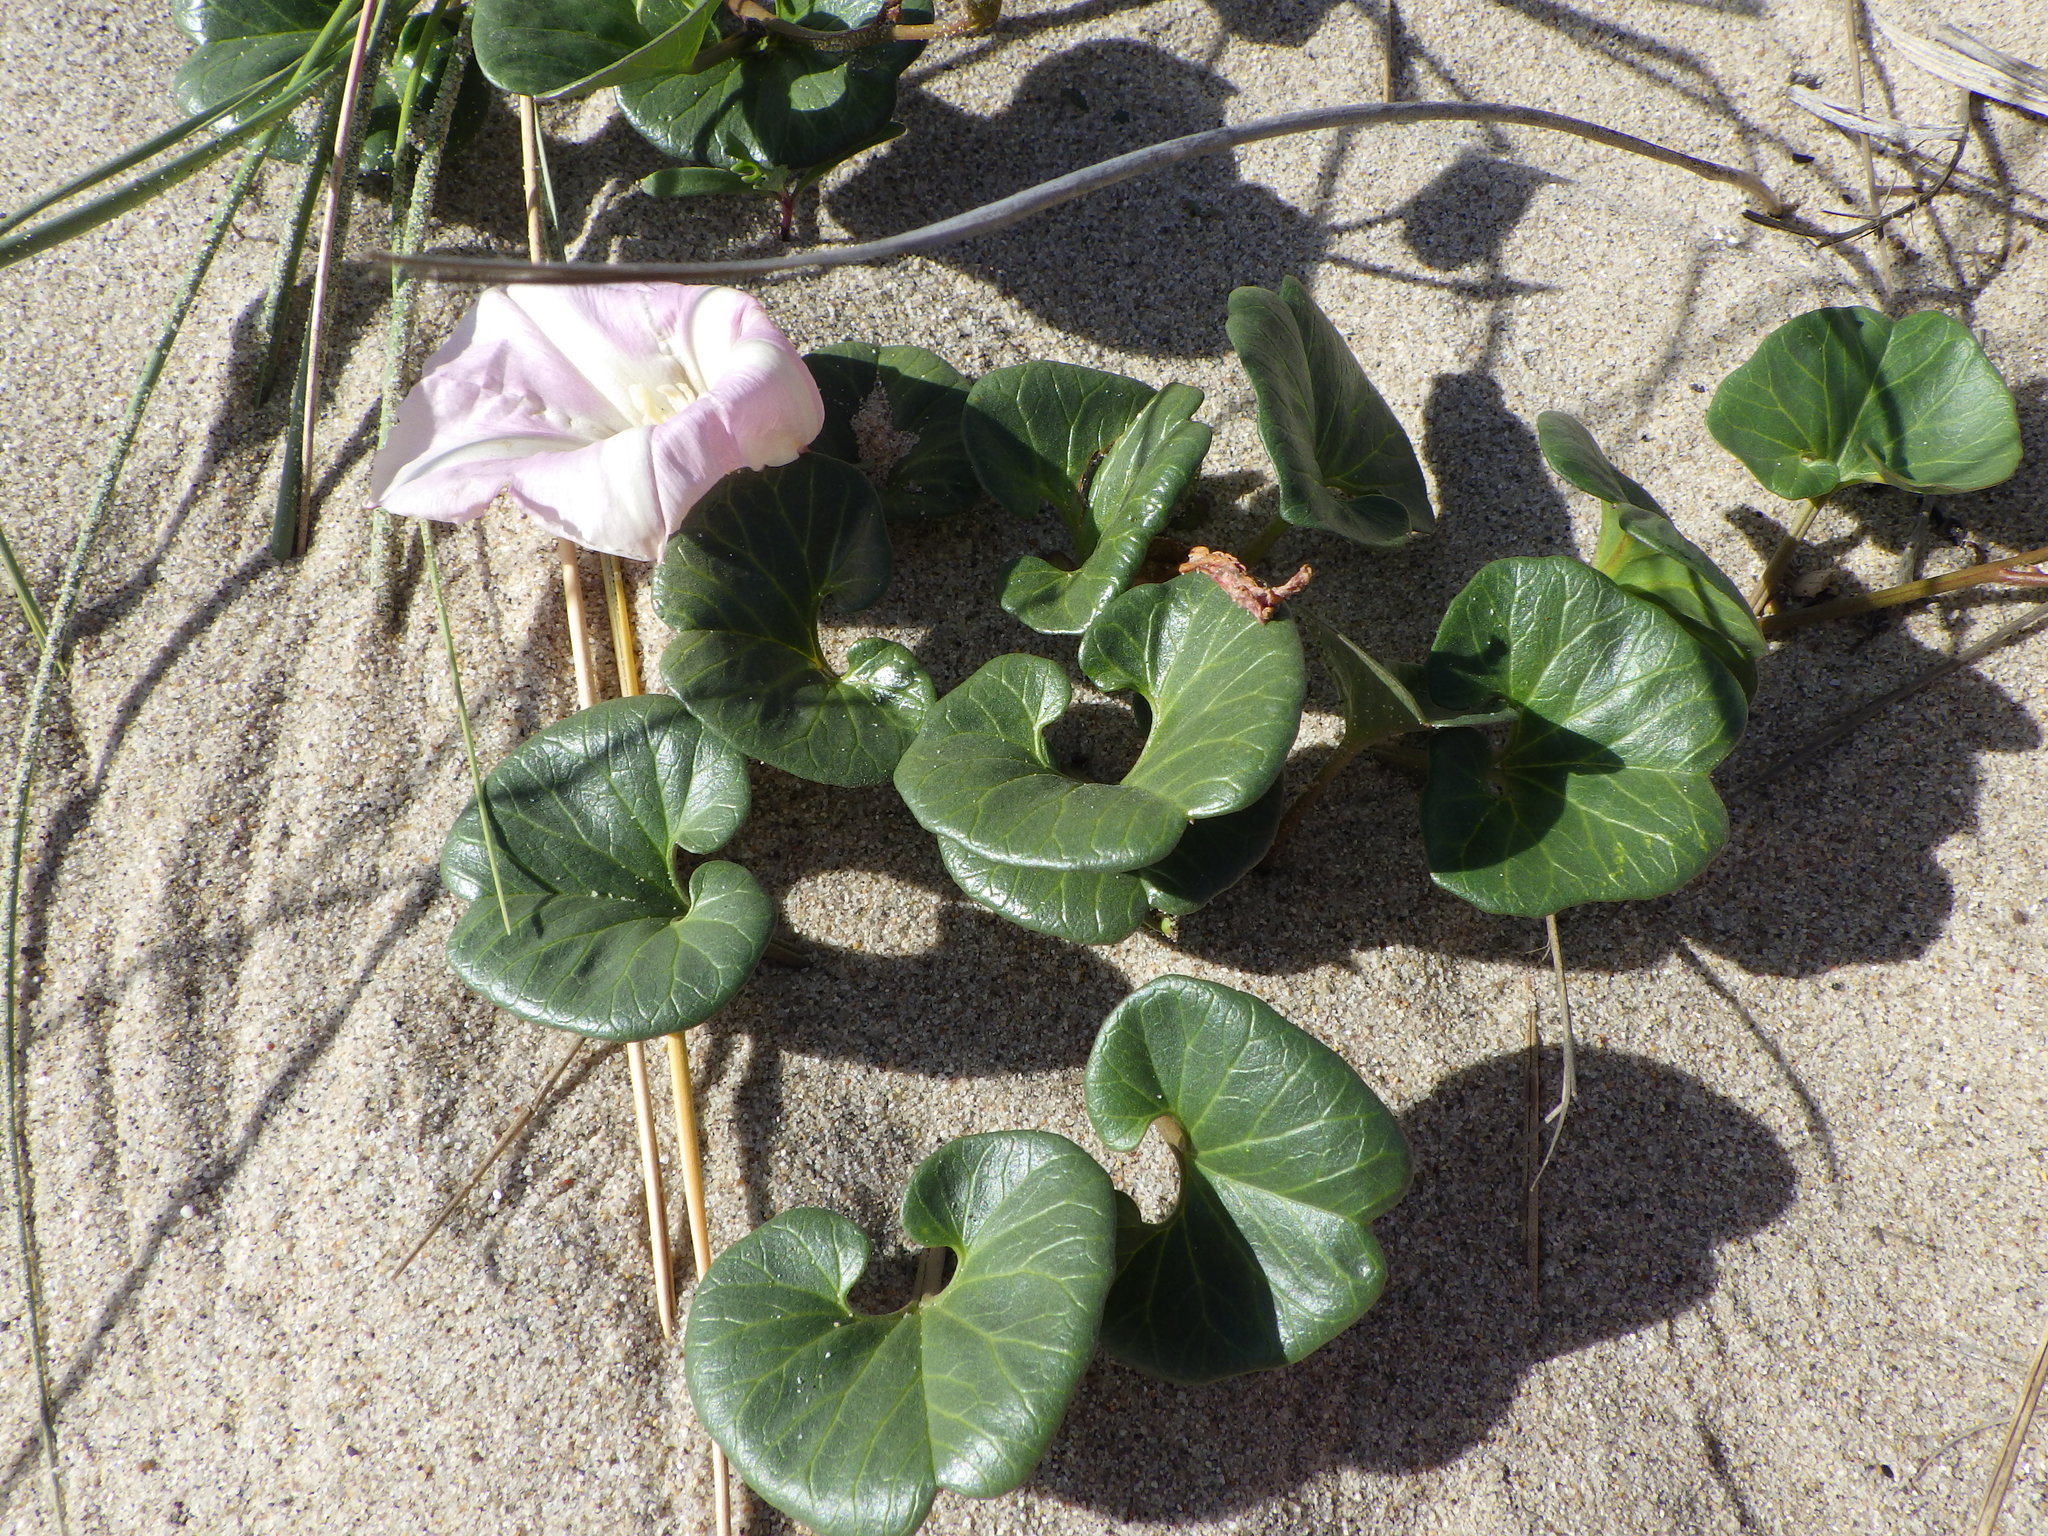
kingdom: Plantae
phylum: Tracheophyta
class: Magnoliopsida
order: Solanales
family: Convolvulaceae
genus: Calystegia
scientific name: Calystegia soldanella
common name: Sea bindweed
